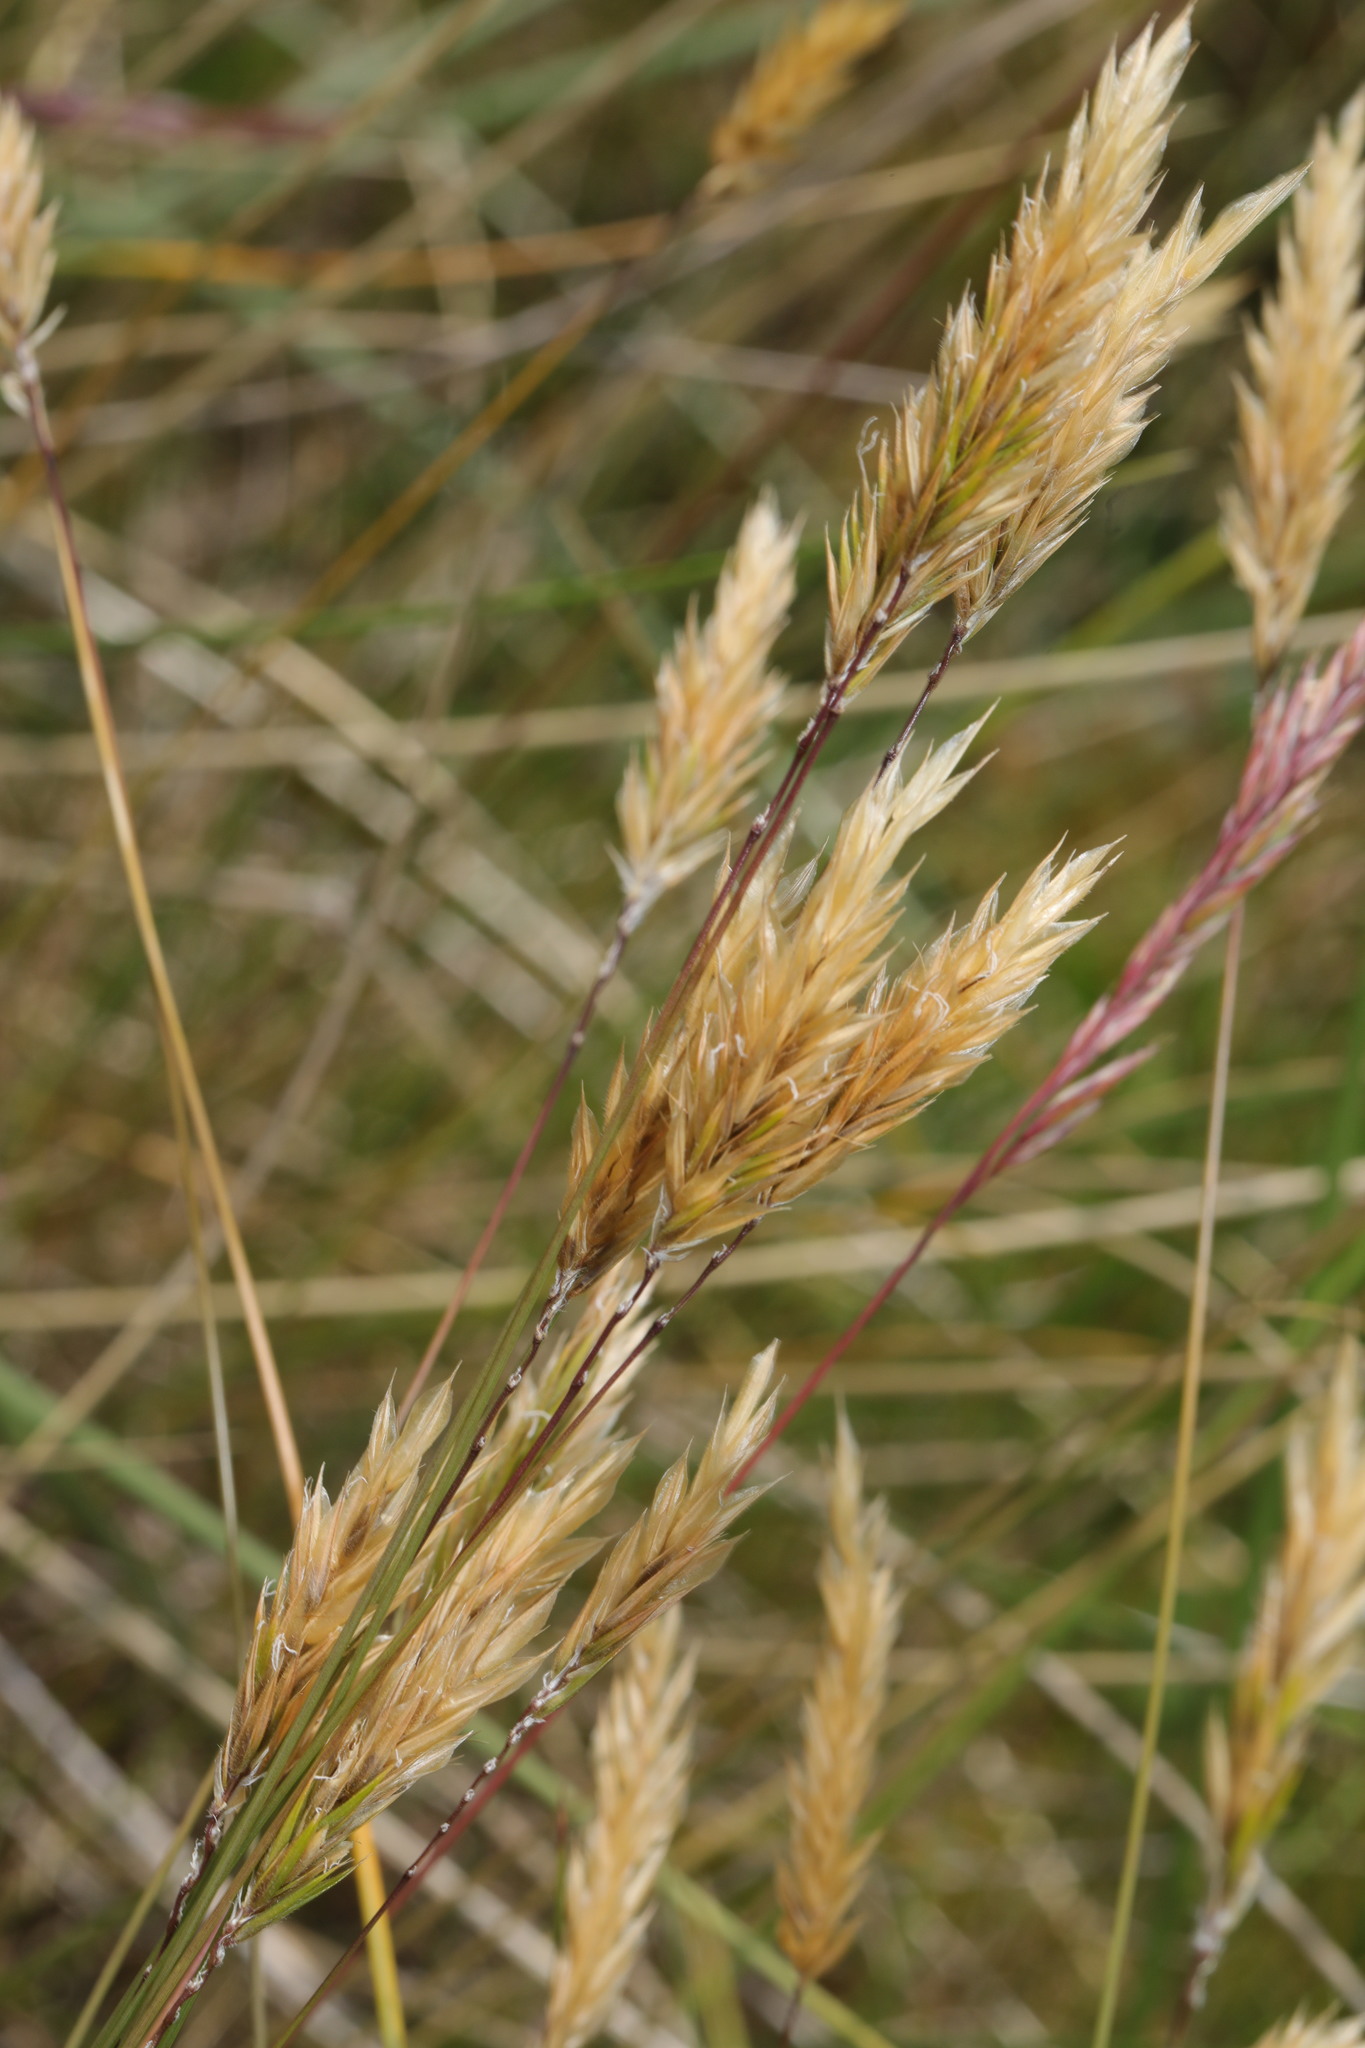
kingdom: Plantae
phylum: Tracheophyta
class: Liliopsida
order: Poales
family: Poaceae
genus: Anthoxanthum
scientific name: Anthoxanthum odoratum
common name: Sweet vernalgrass
